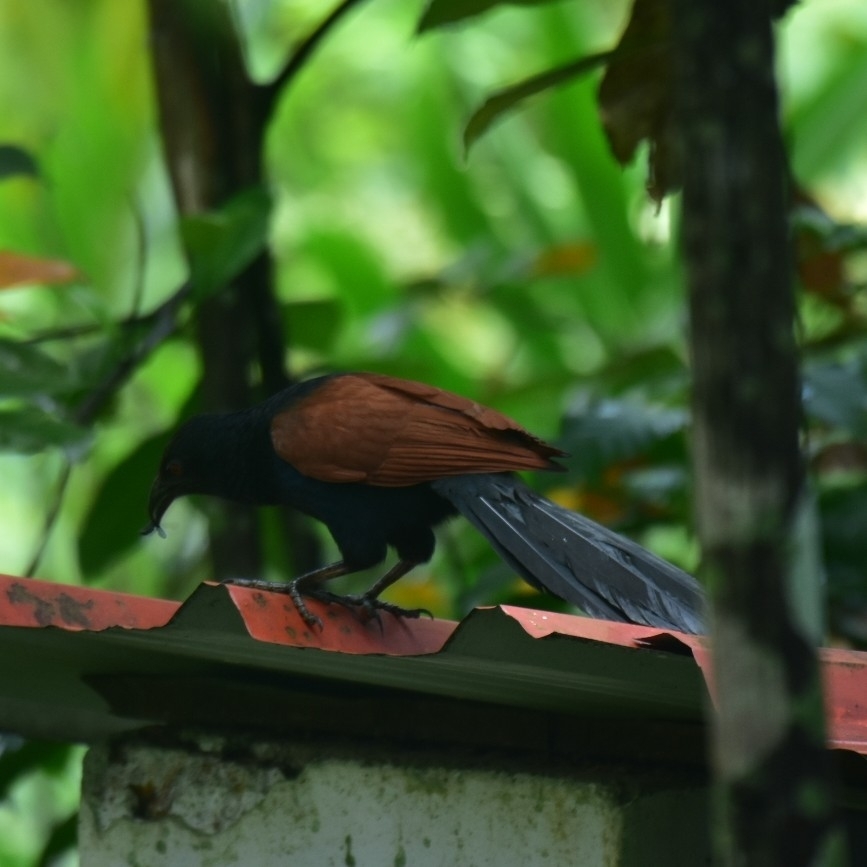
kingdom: Animalia
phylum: Chordata
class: Aves
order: Cuculiformes
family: Cuculidae
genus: Centropus
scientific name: Centropus sinensis
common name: Greater coucal
